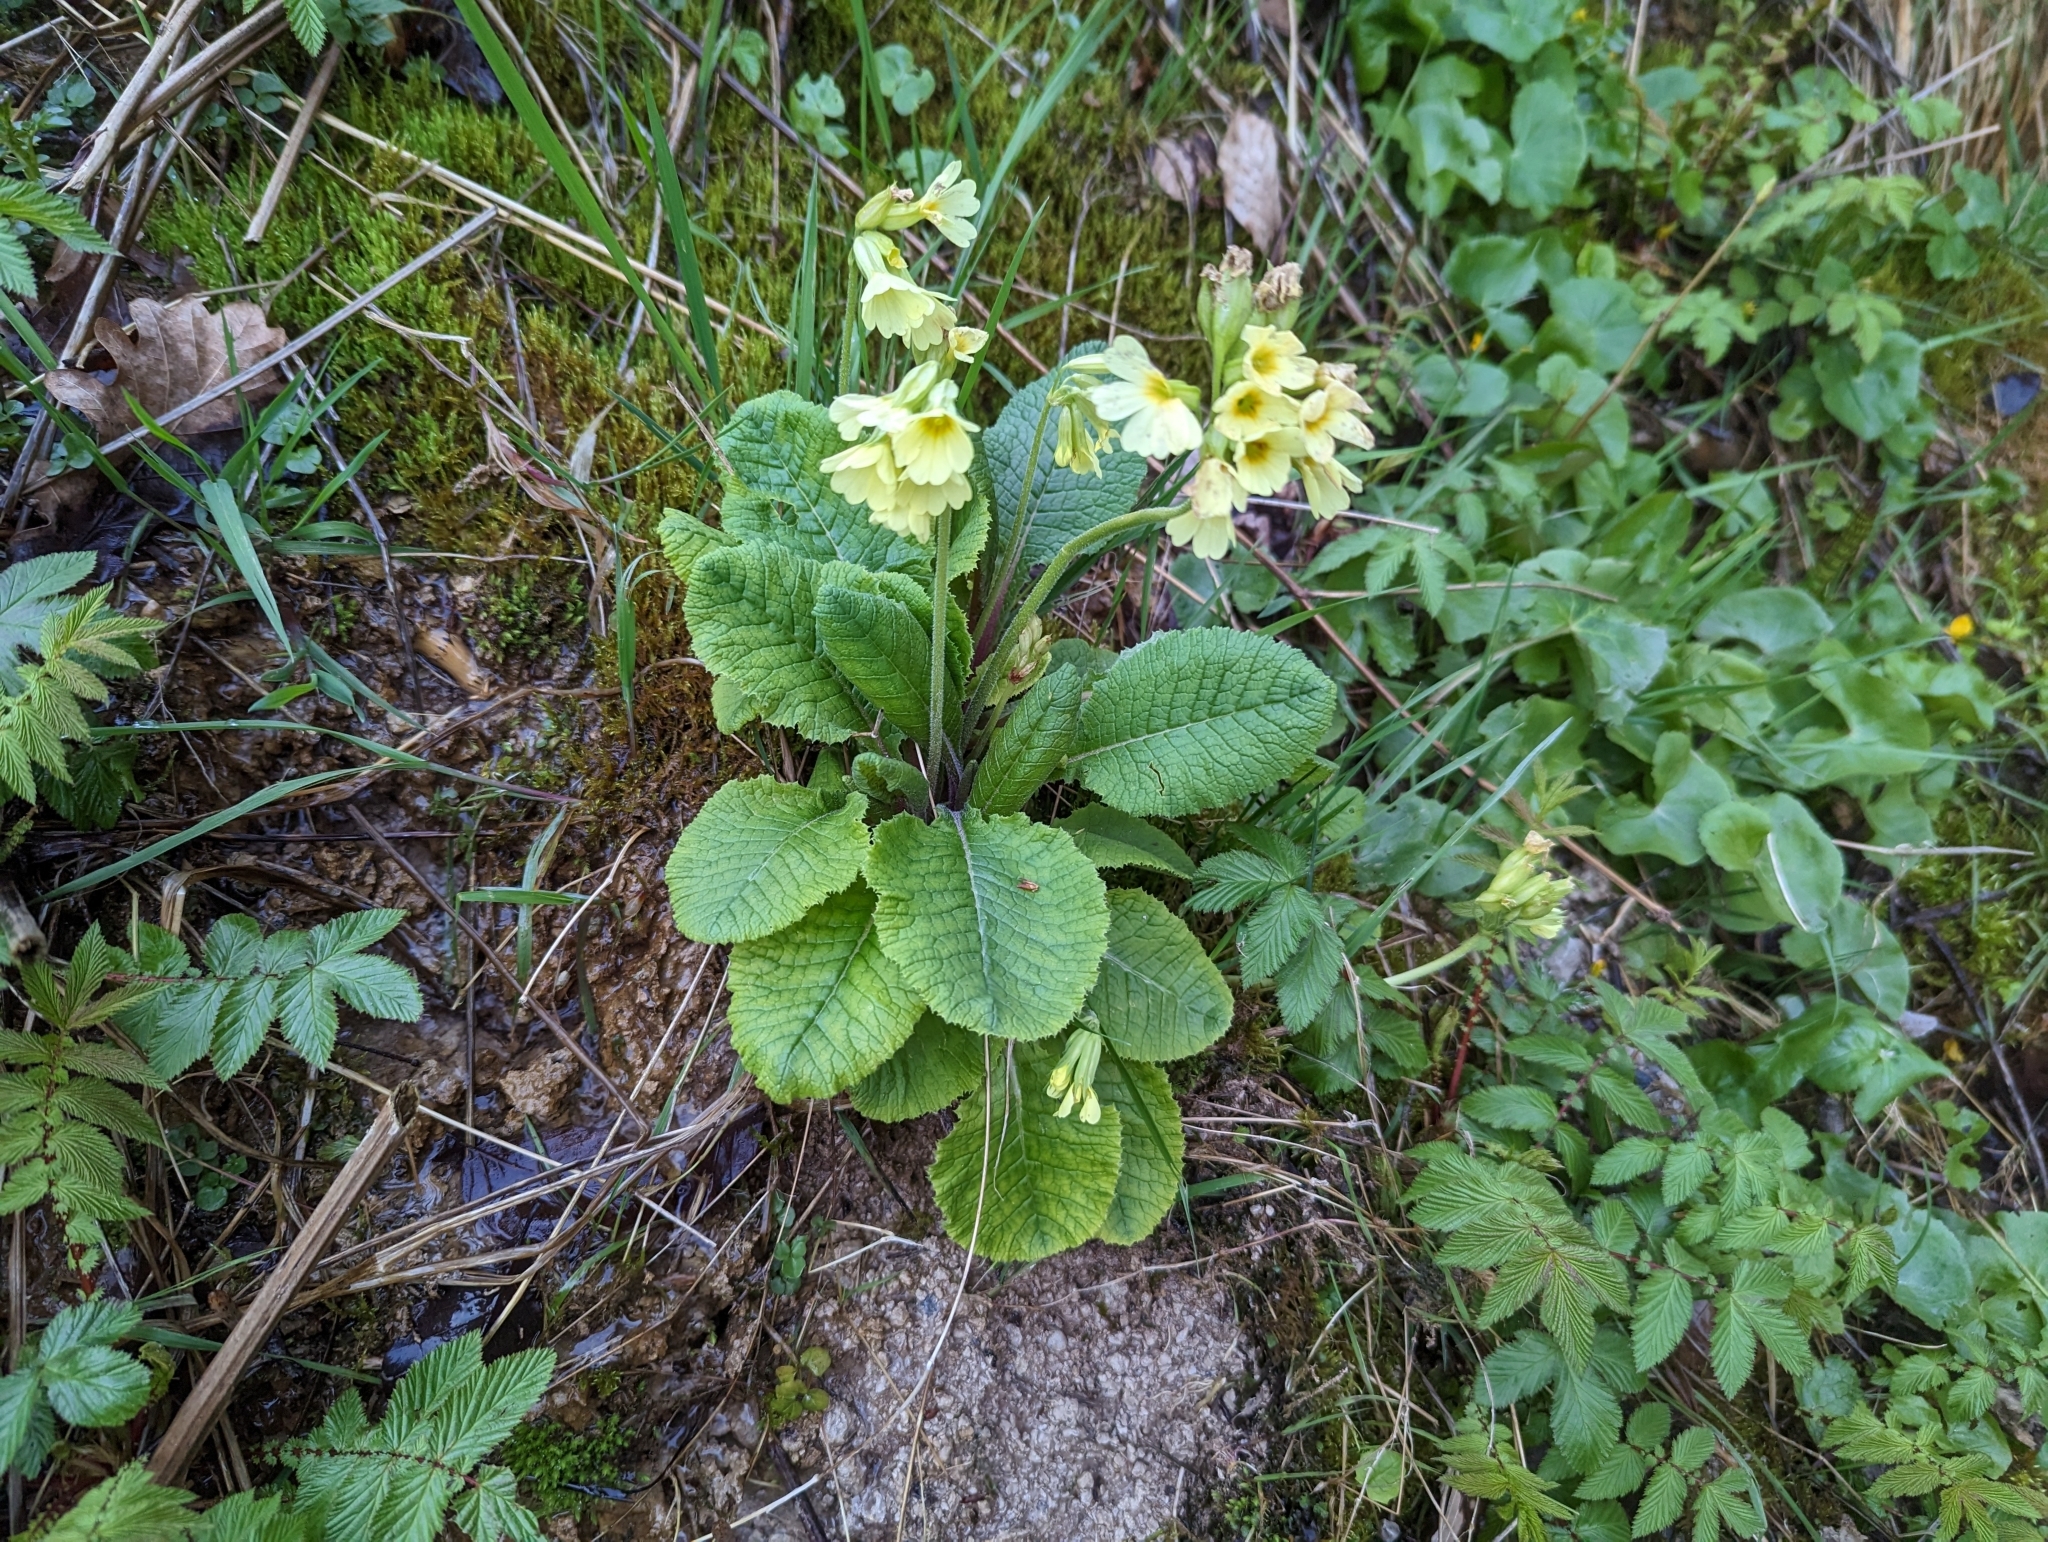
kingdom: Plantae
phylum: Tracheophyta
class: Magnoliopsida
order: Ericales
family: Primulaceae
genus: Primula
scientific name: Primula elatior
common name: Oxlip
